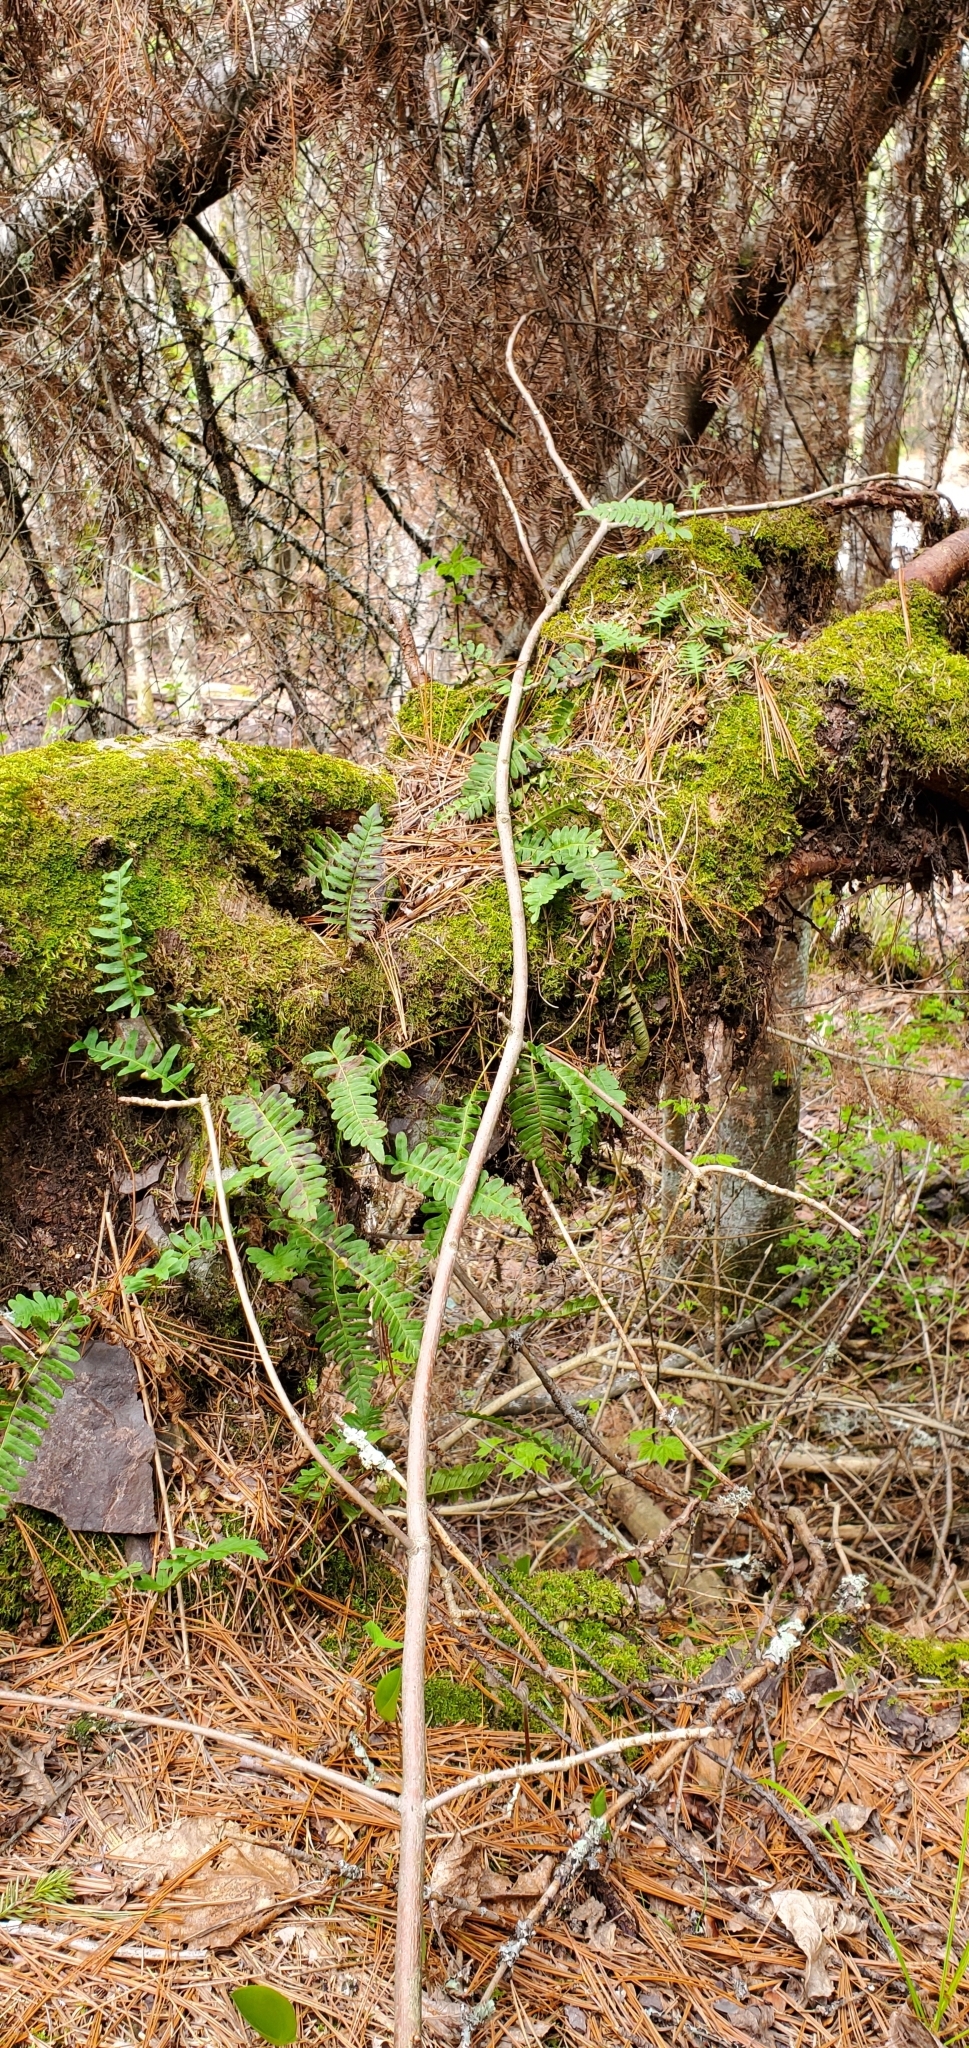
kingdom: Plantae
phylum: Tracheophyta
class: Polypodiopsida
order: Polypodiales
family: Polypodiaceae
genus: Polypodium
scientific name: Polypodium virginianum
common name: American wall fern
